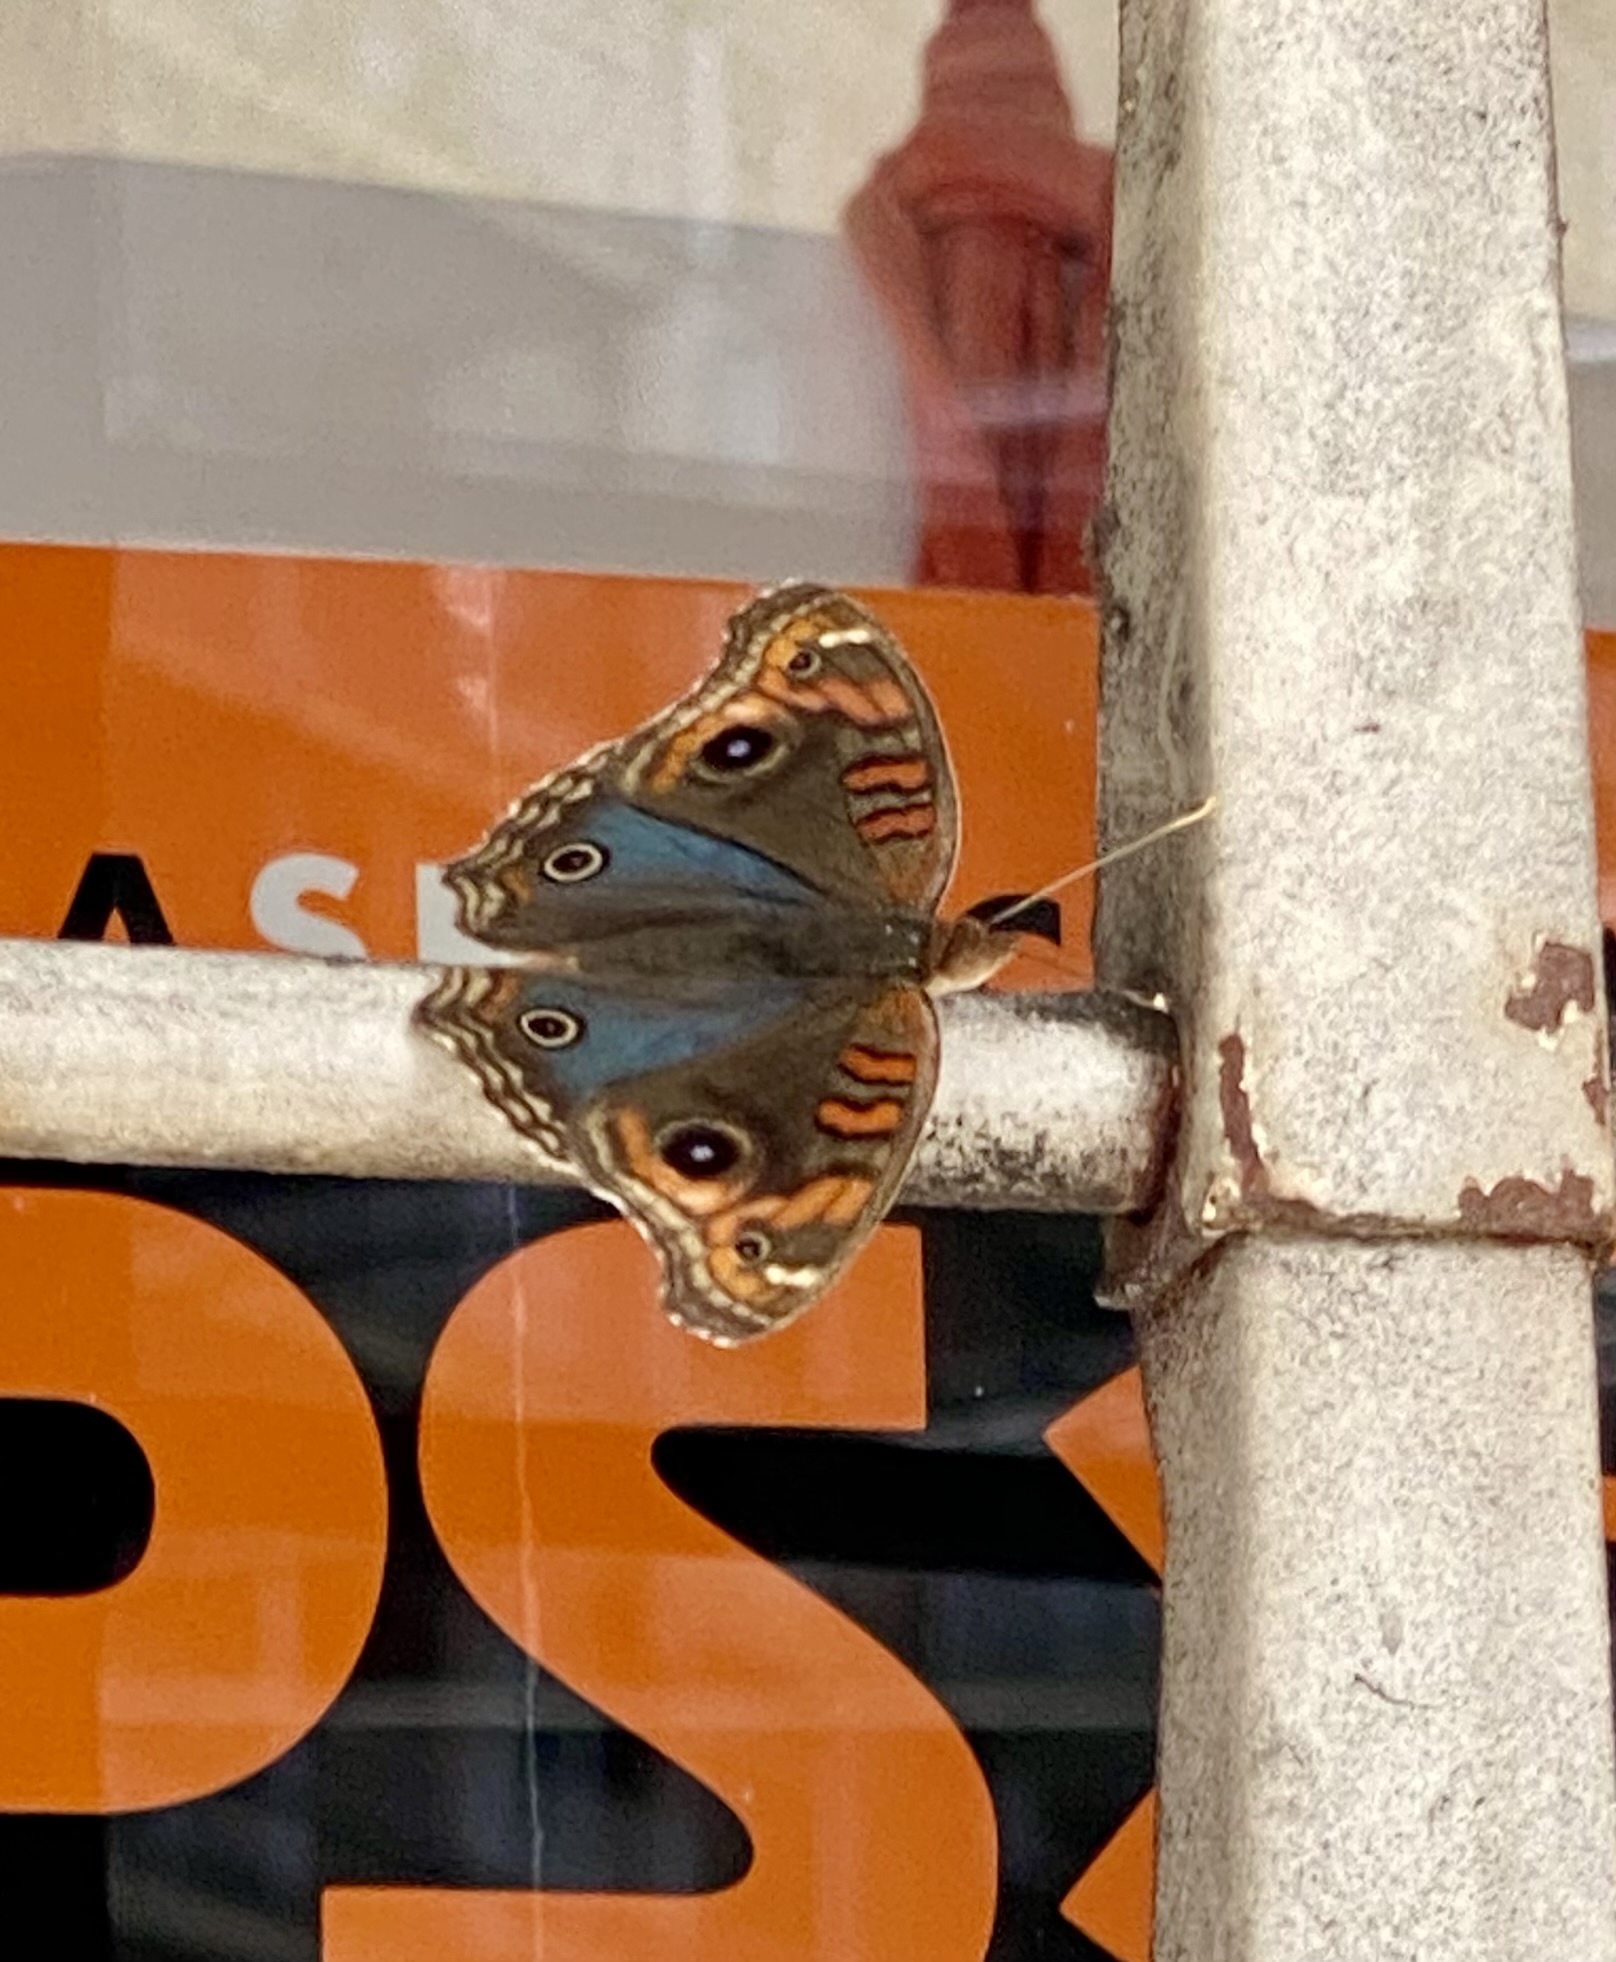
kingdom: Animalia
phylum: Arthropoda
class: Insecta
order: Lepidoptera
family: Nymphalidae
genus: Junonia
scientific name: Junonia lavinia
